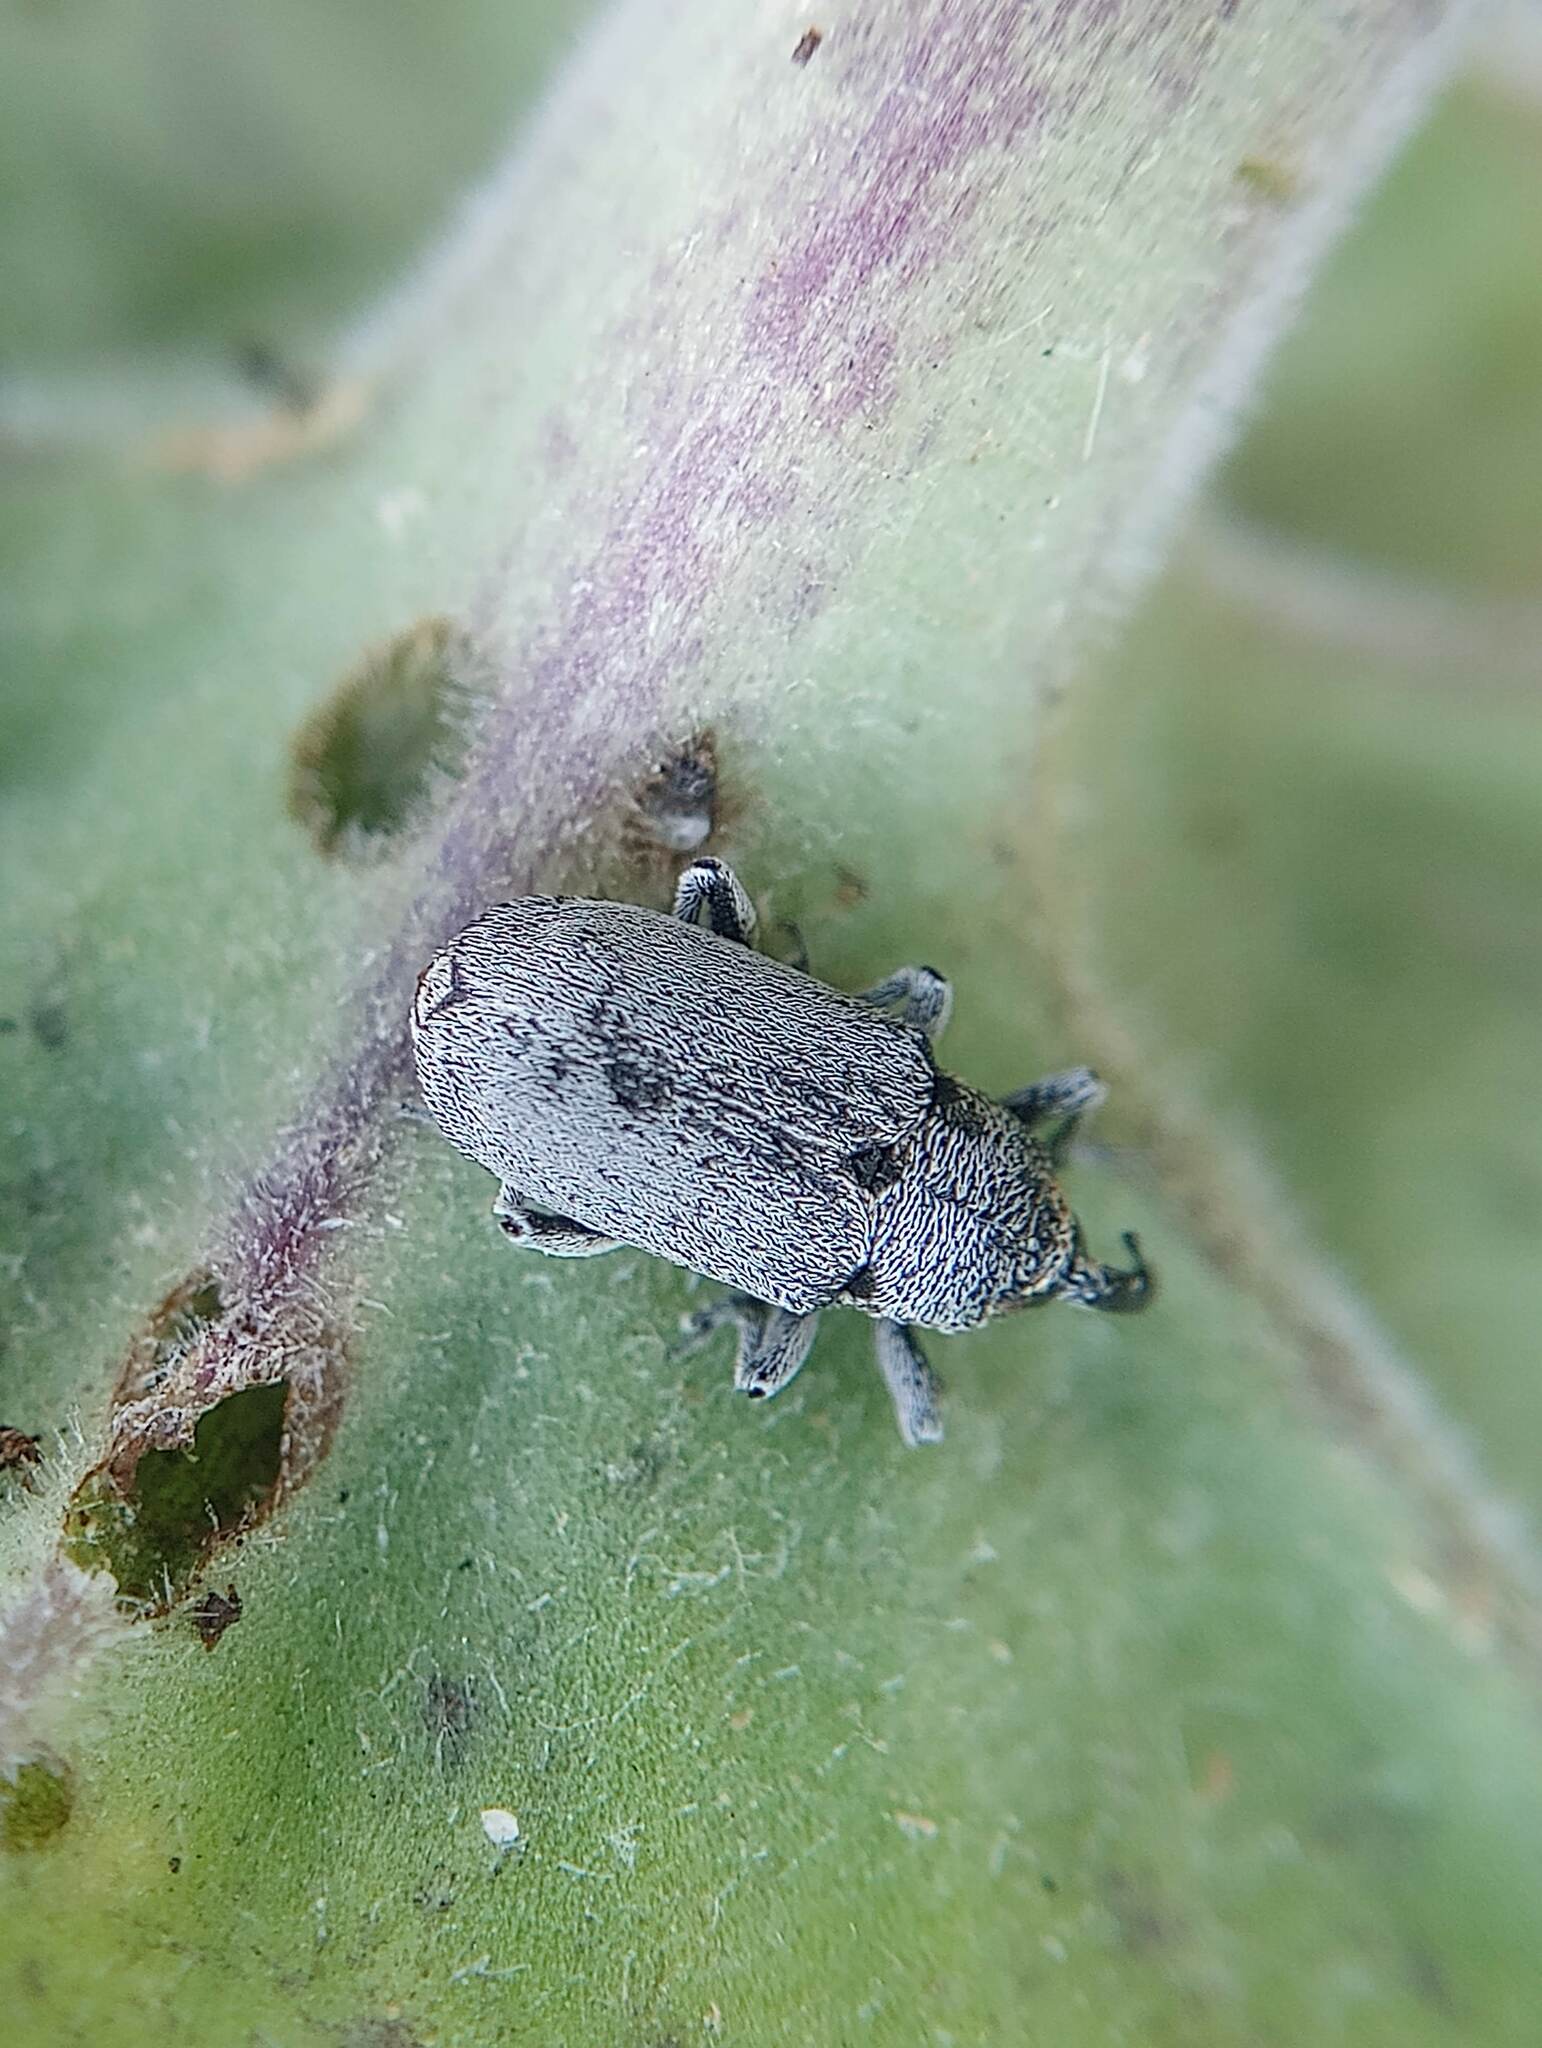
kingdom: Animalia
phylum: Arthropoda
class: Insecta
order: Coleoptera
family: Curculionidae
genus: Trichobaris
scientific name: Trichobaris compacta
